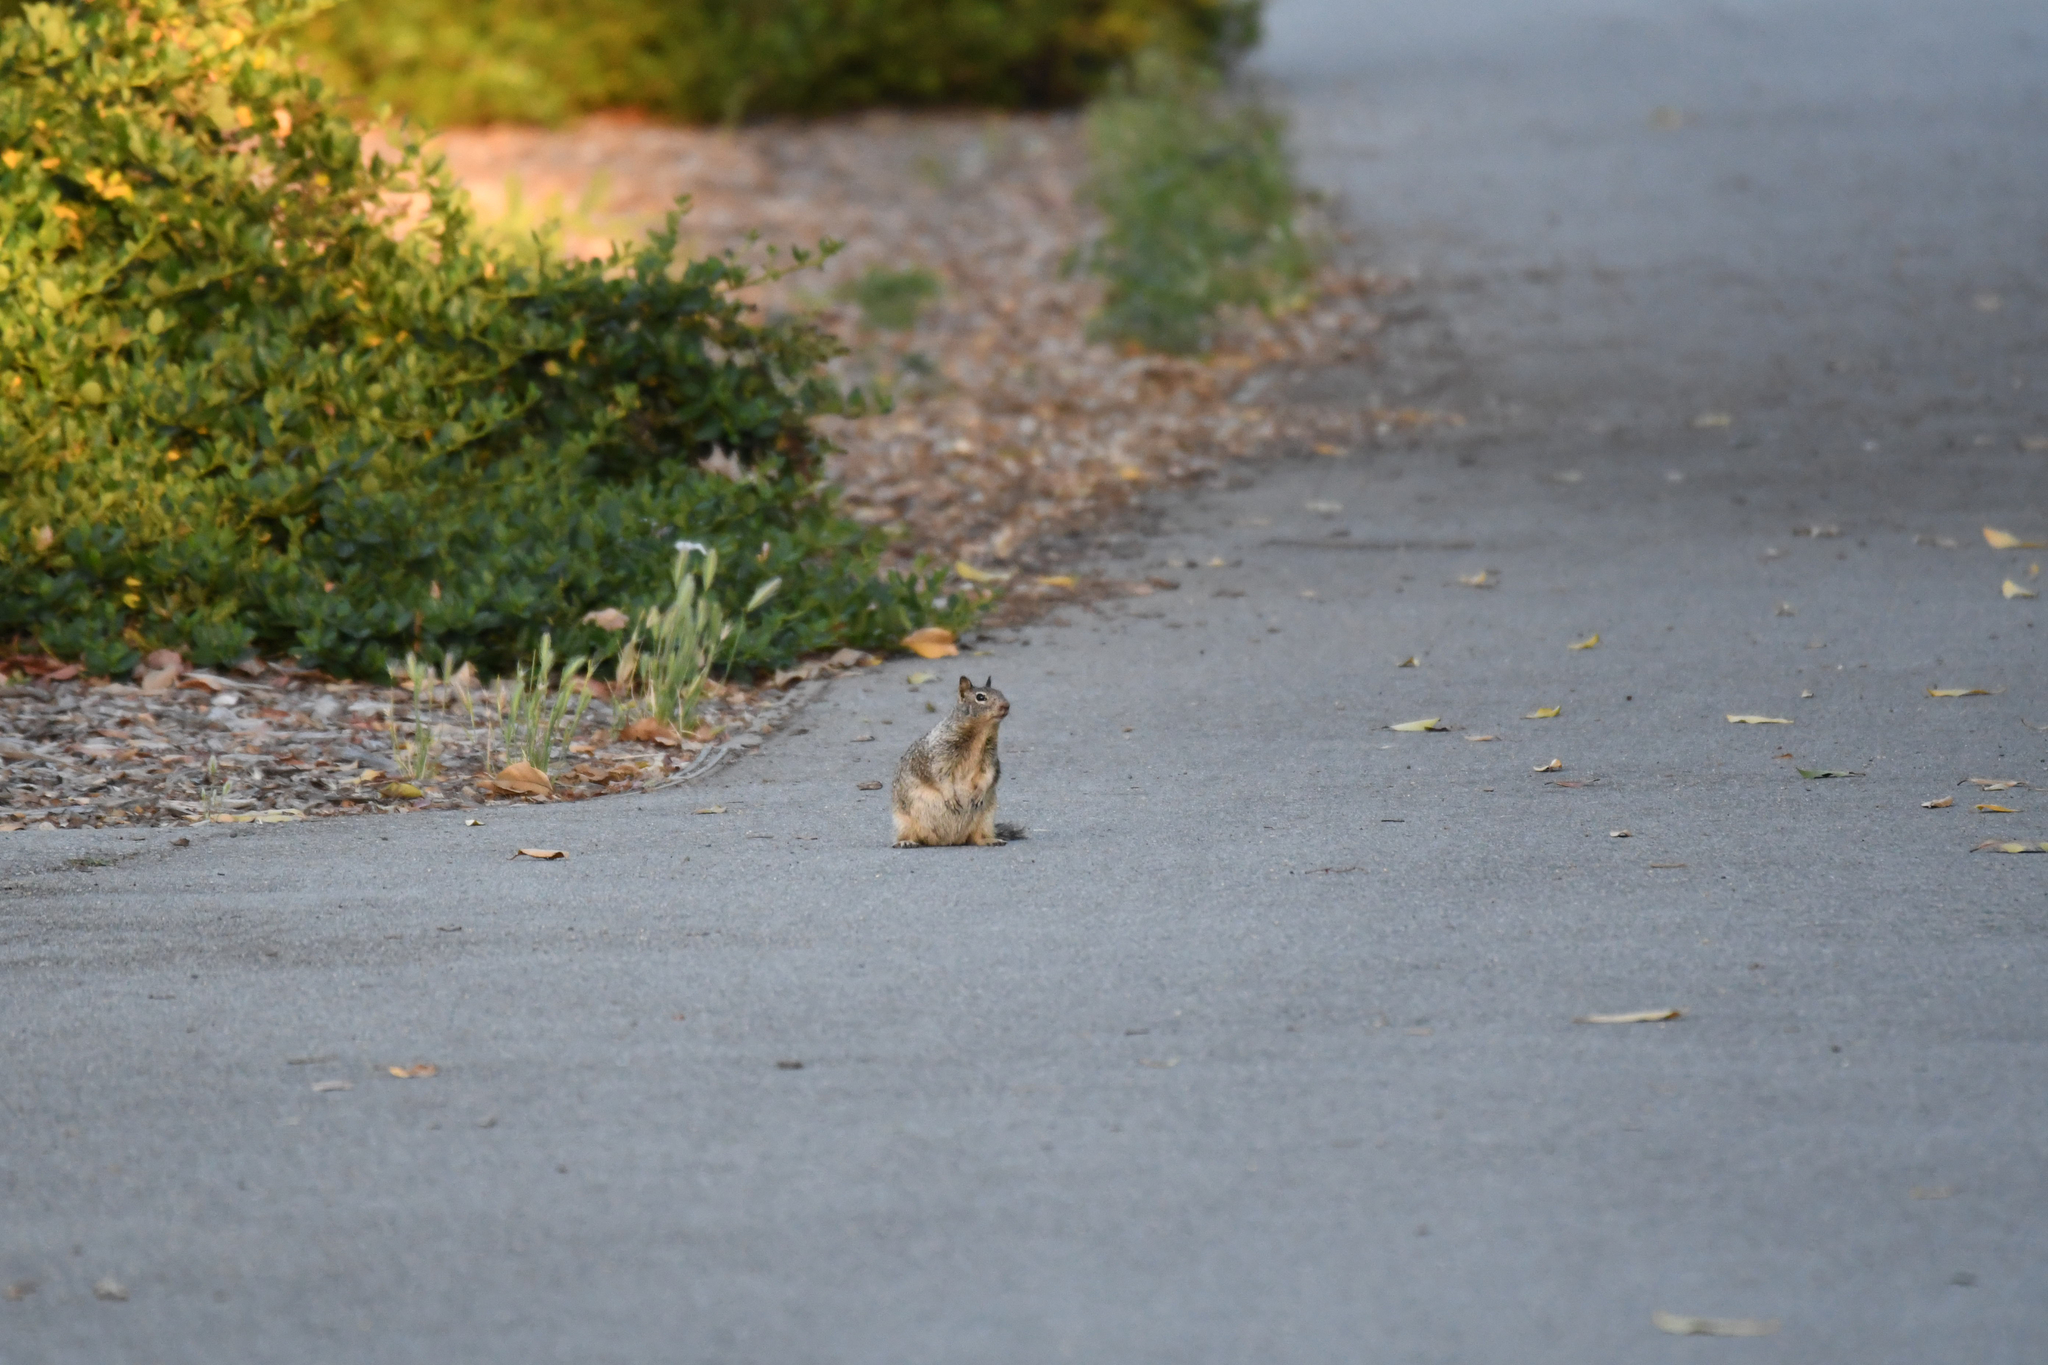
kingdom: Animalia
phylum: Chordata
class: Mammalia
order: Rodentia
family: Sciuridae
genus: Otospermophilus
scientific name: Otospermophilus beecheyi
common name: California ground squirrel
